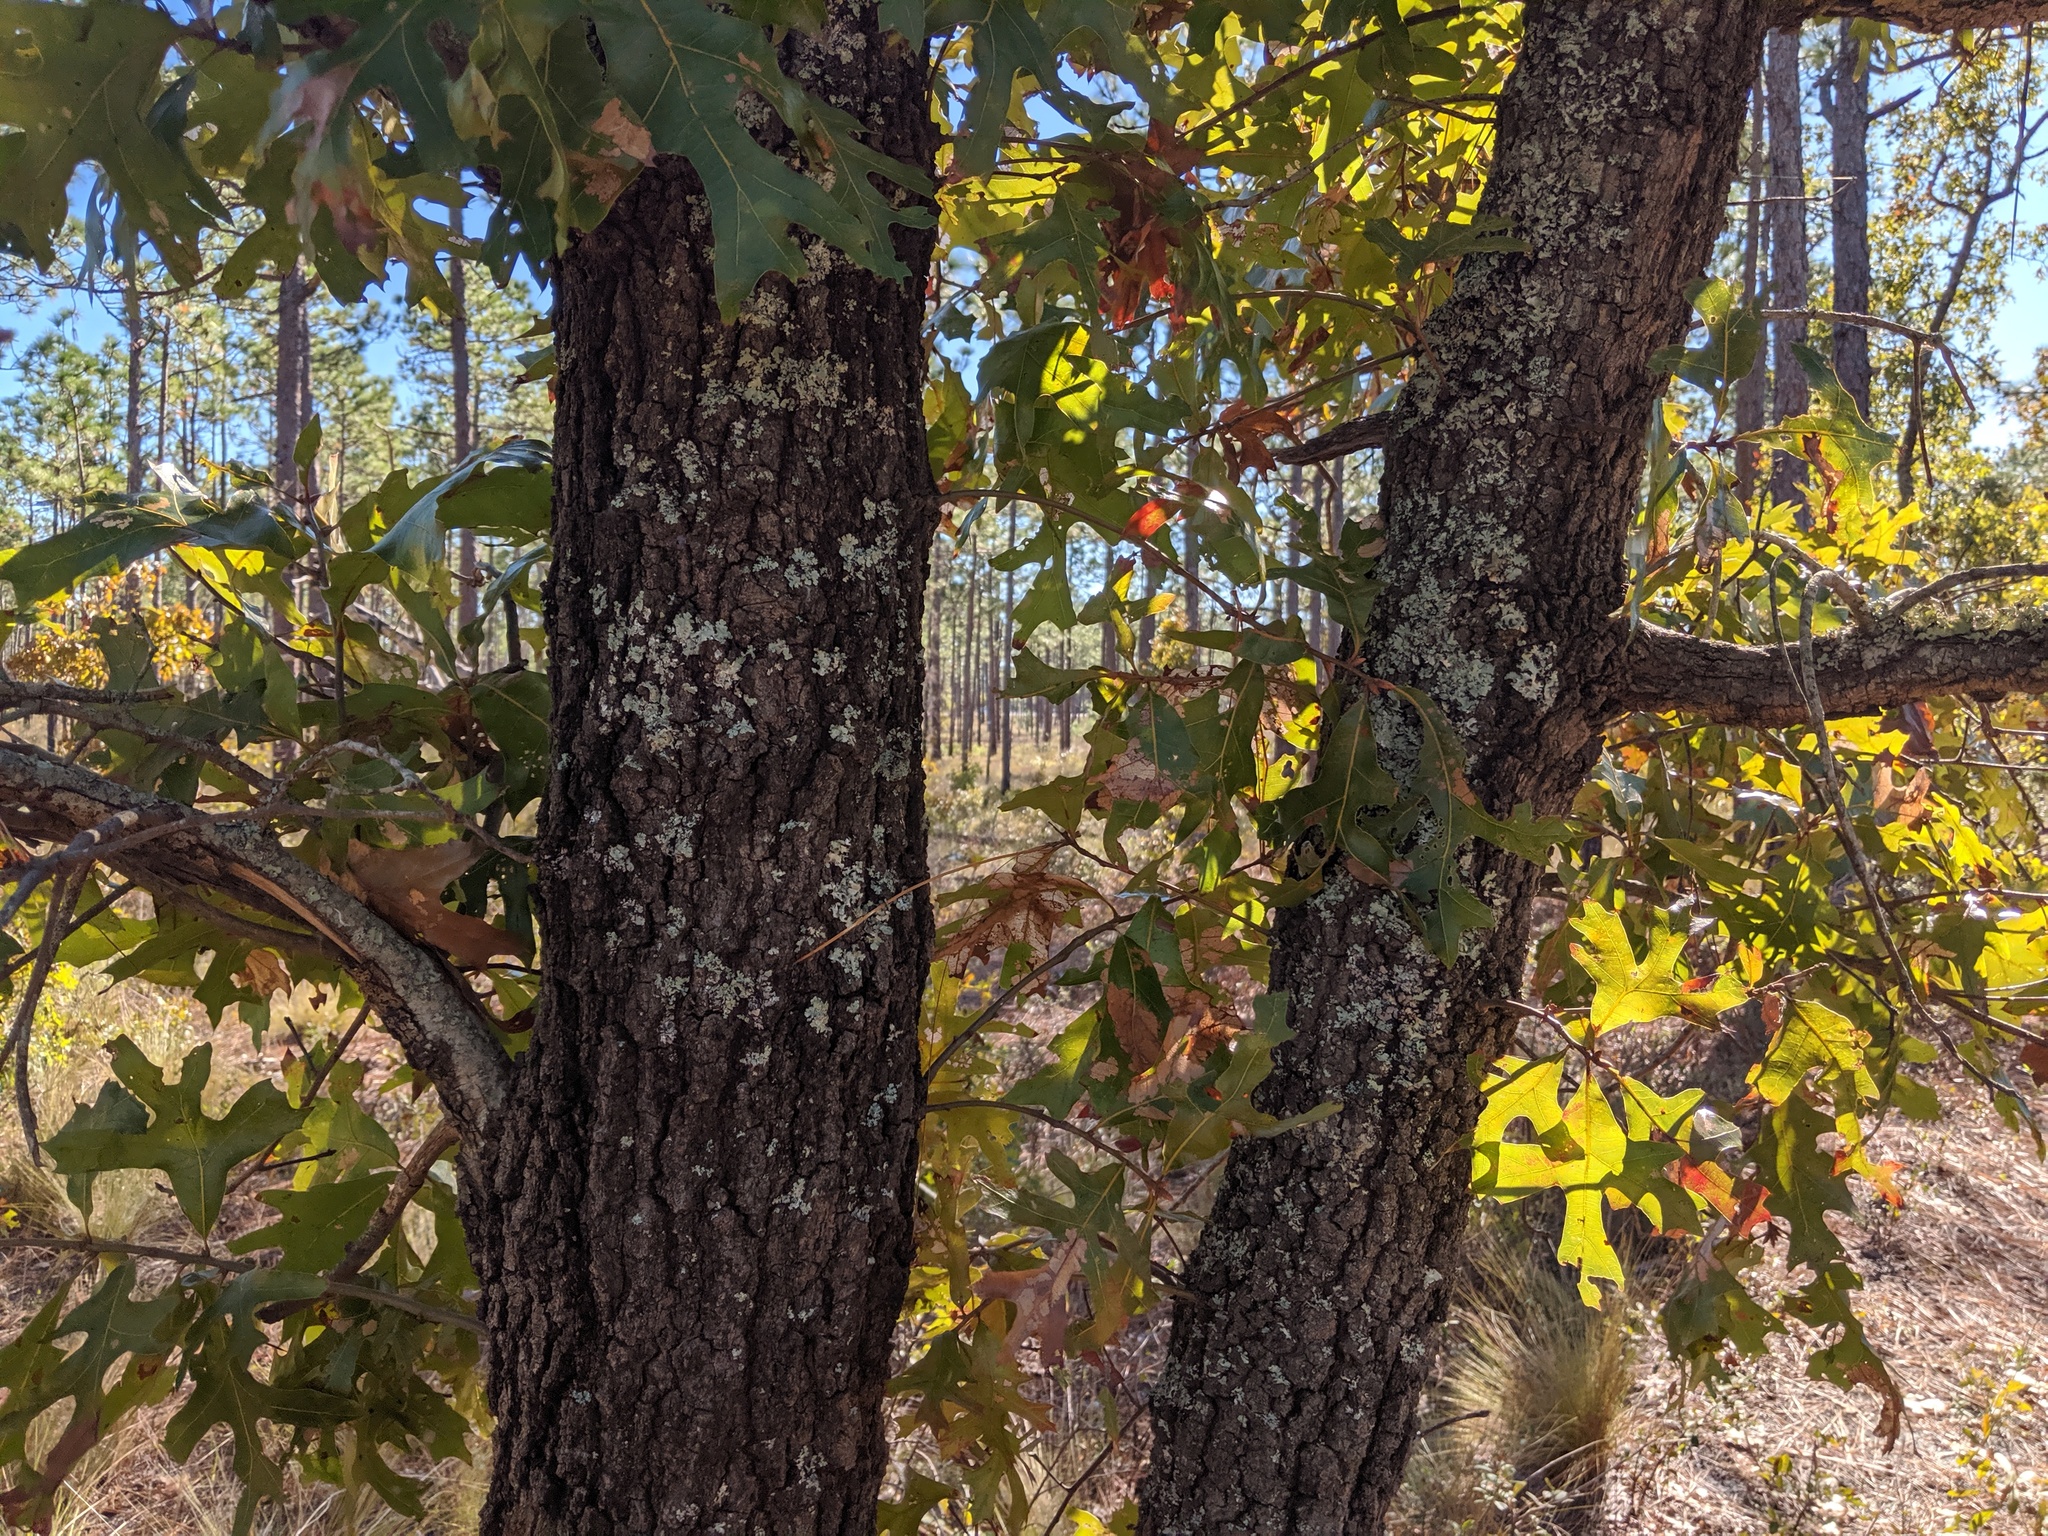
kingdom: Plantae
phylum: Tracheophyta
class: Magnoliopsida
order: Fagales
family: Fagaceae
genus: Quercus
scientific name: Quercus laevis
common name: Turkey oak
